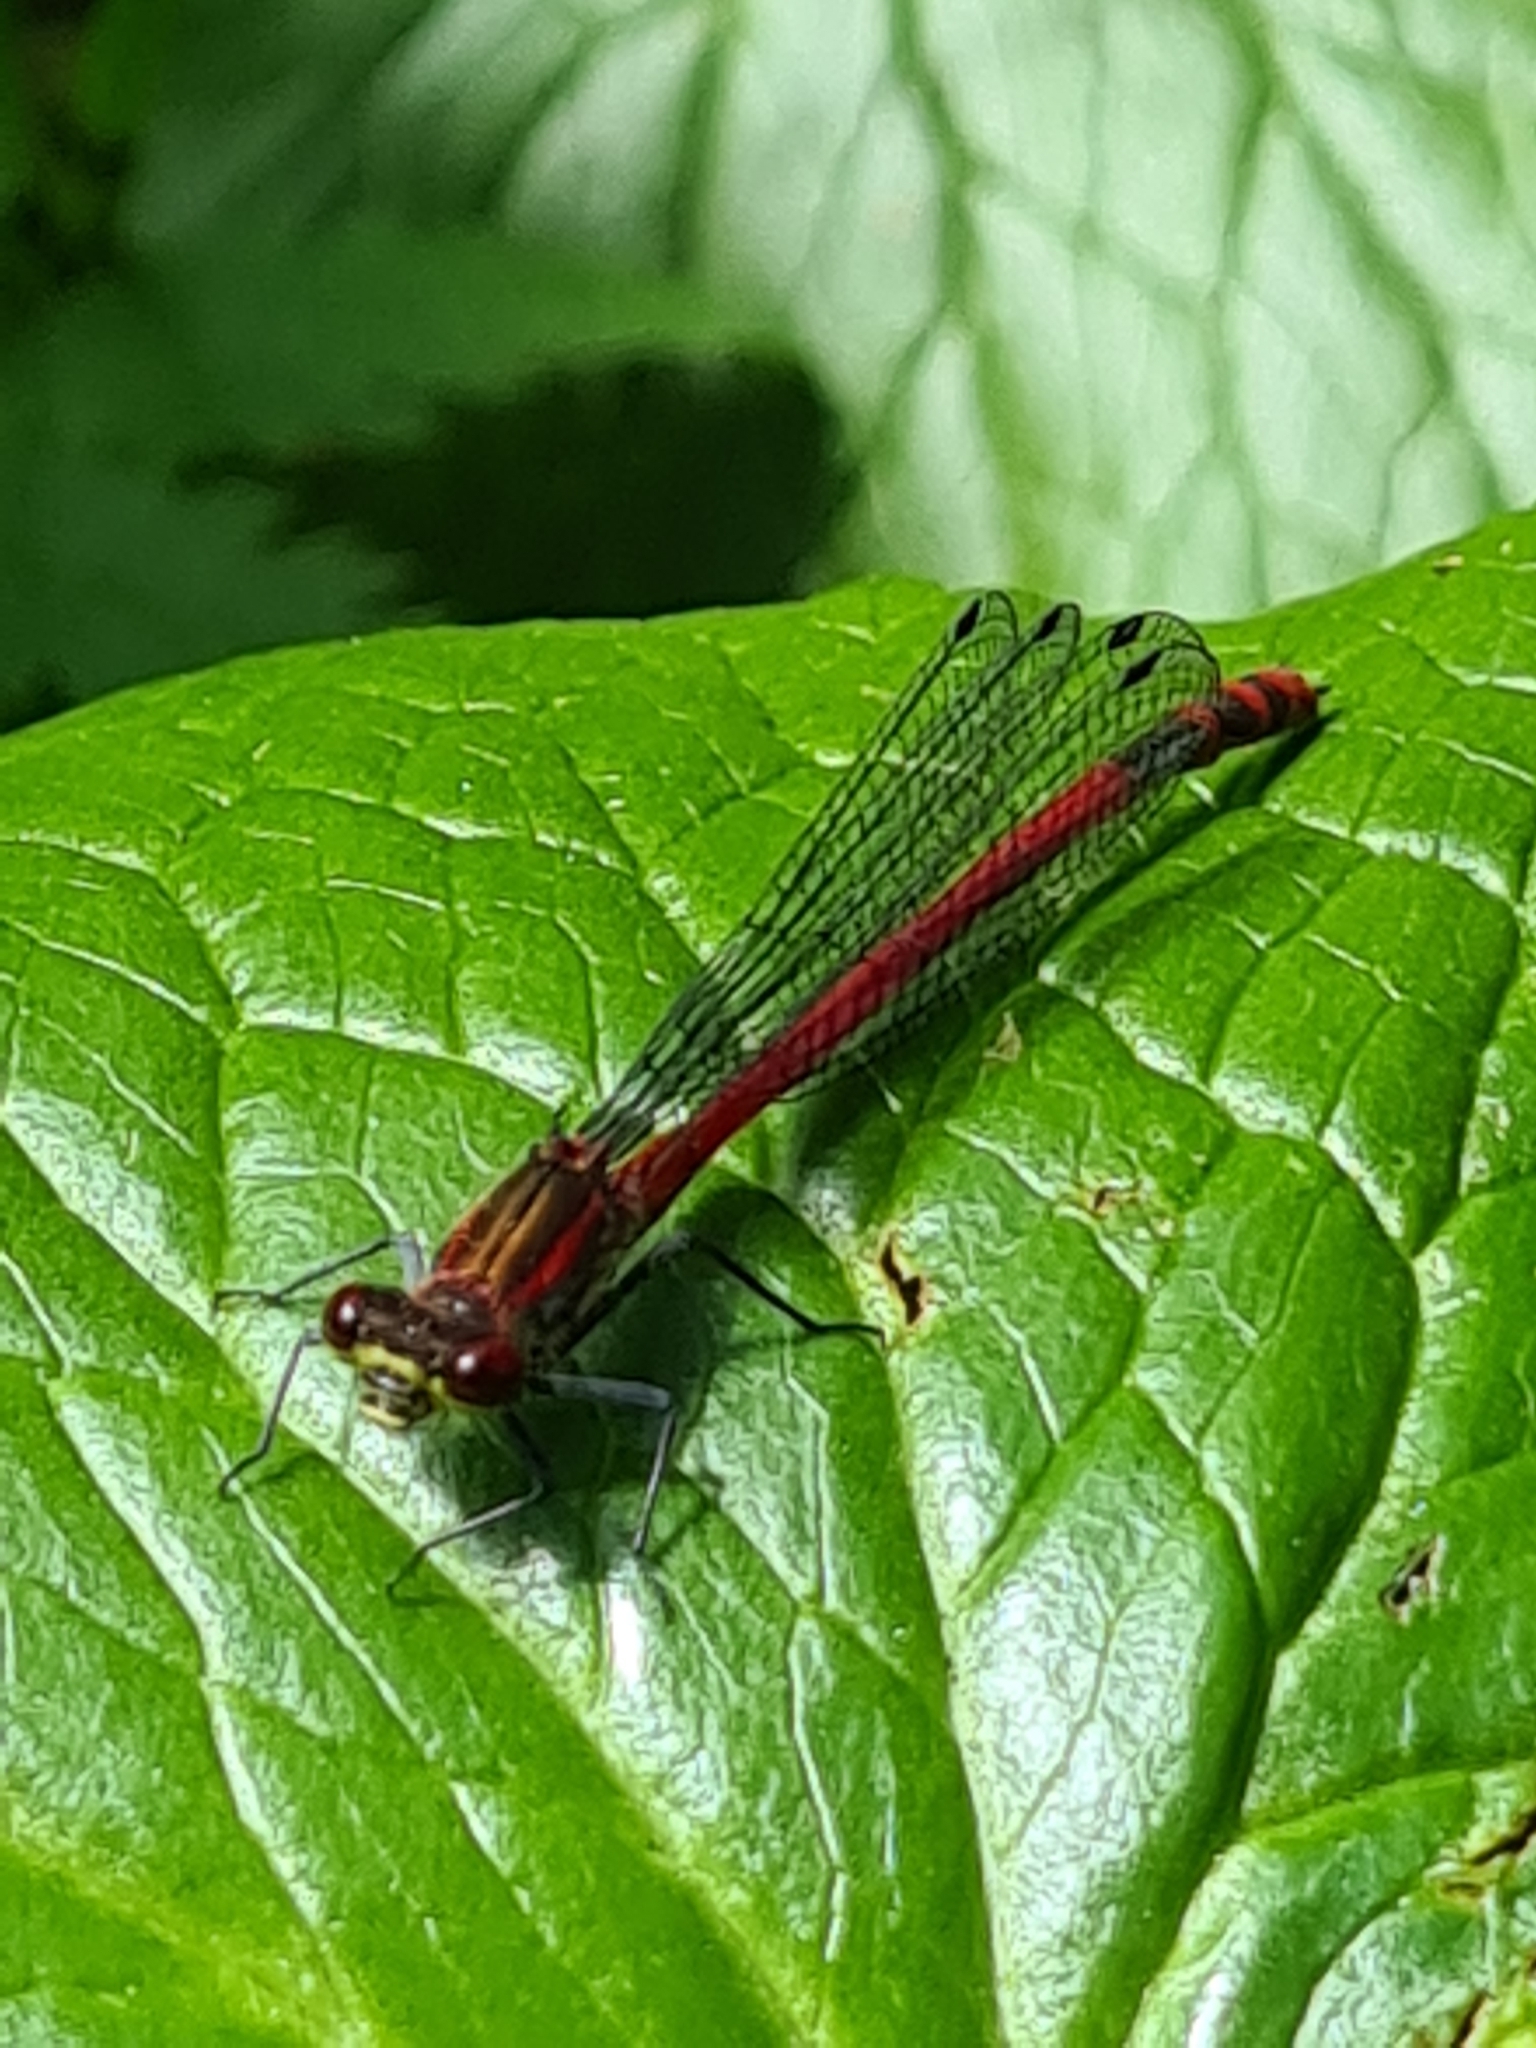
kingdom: Animalia
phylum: Arthropoda
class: Insecta
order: Odonata
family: Coenagrionidae
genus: Pyrrhosoma
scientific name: Pyrrhosoma nymphula
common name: Large red damsel
